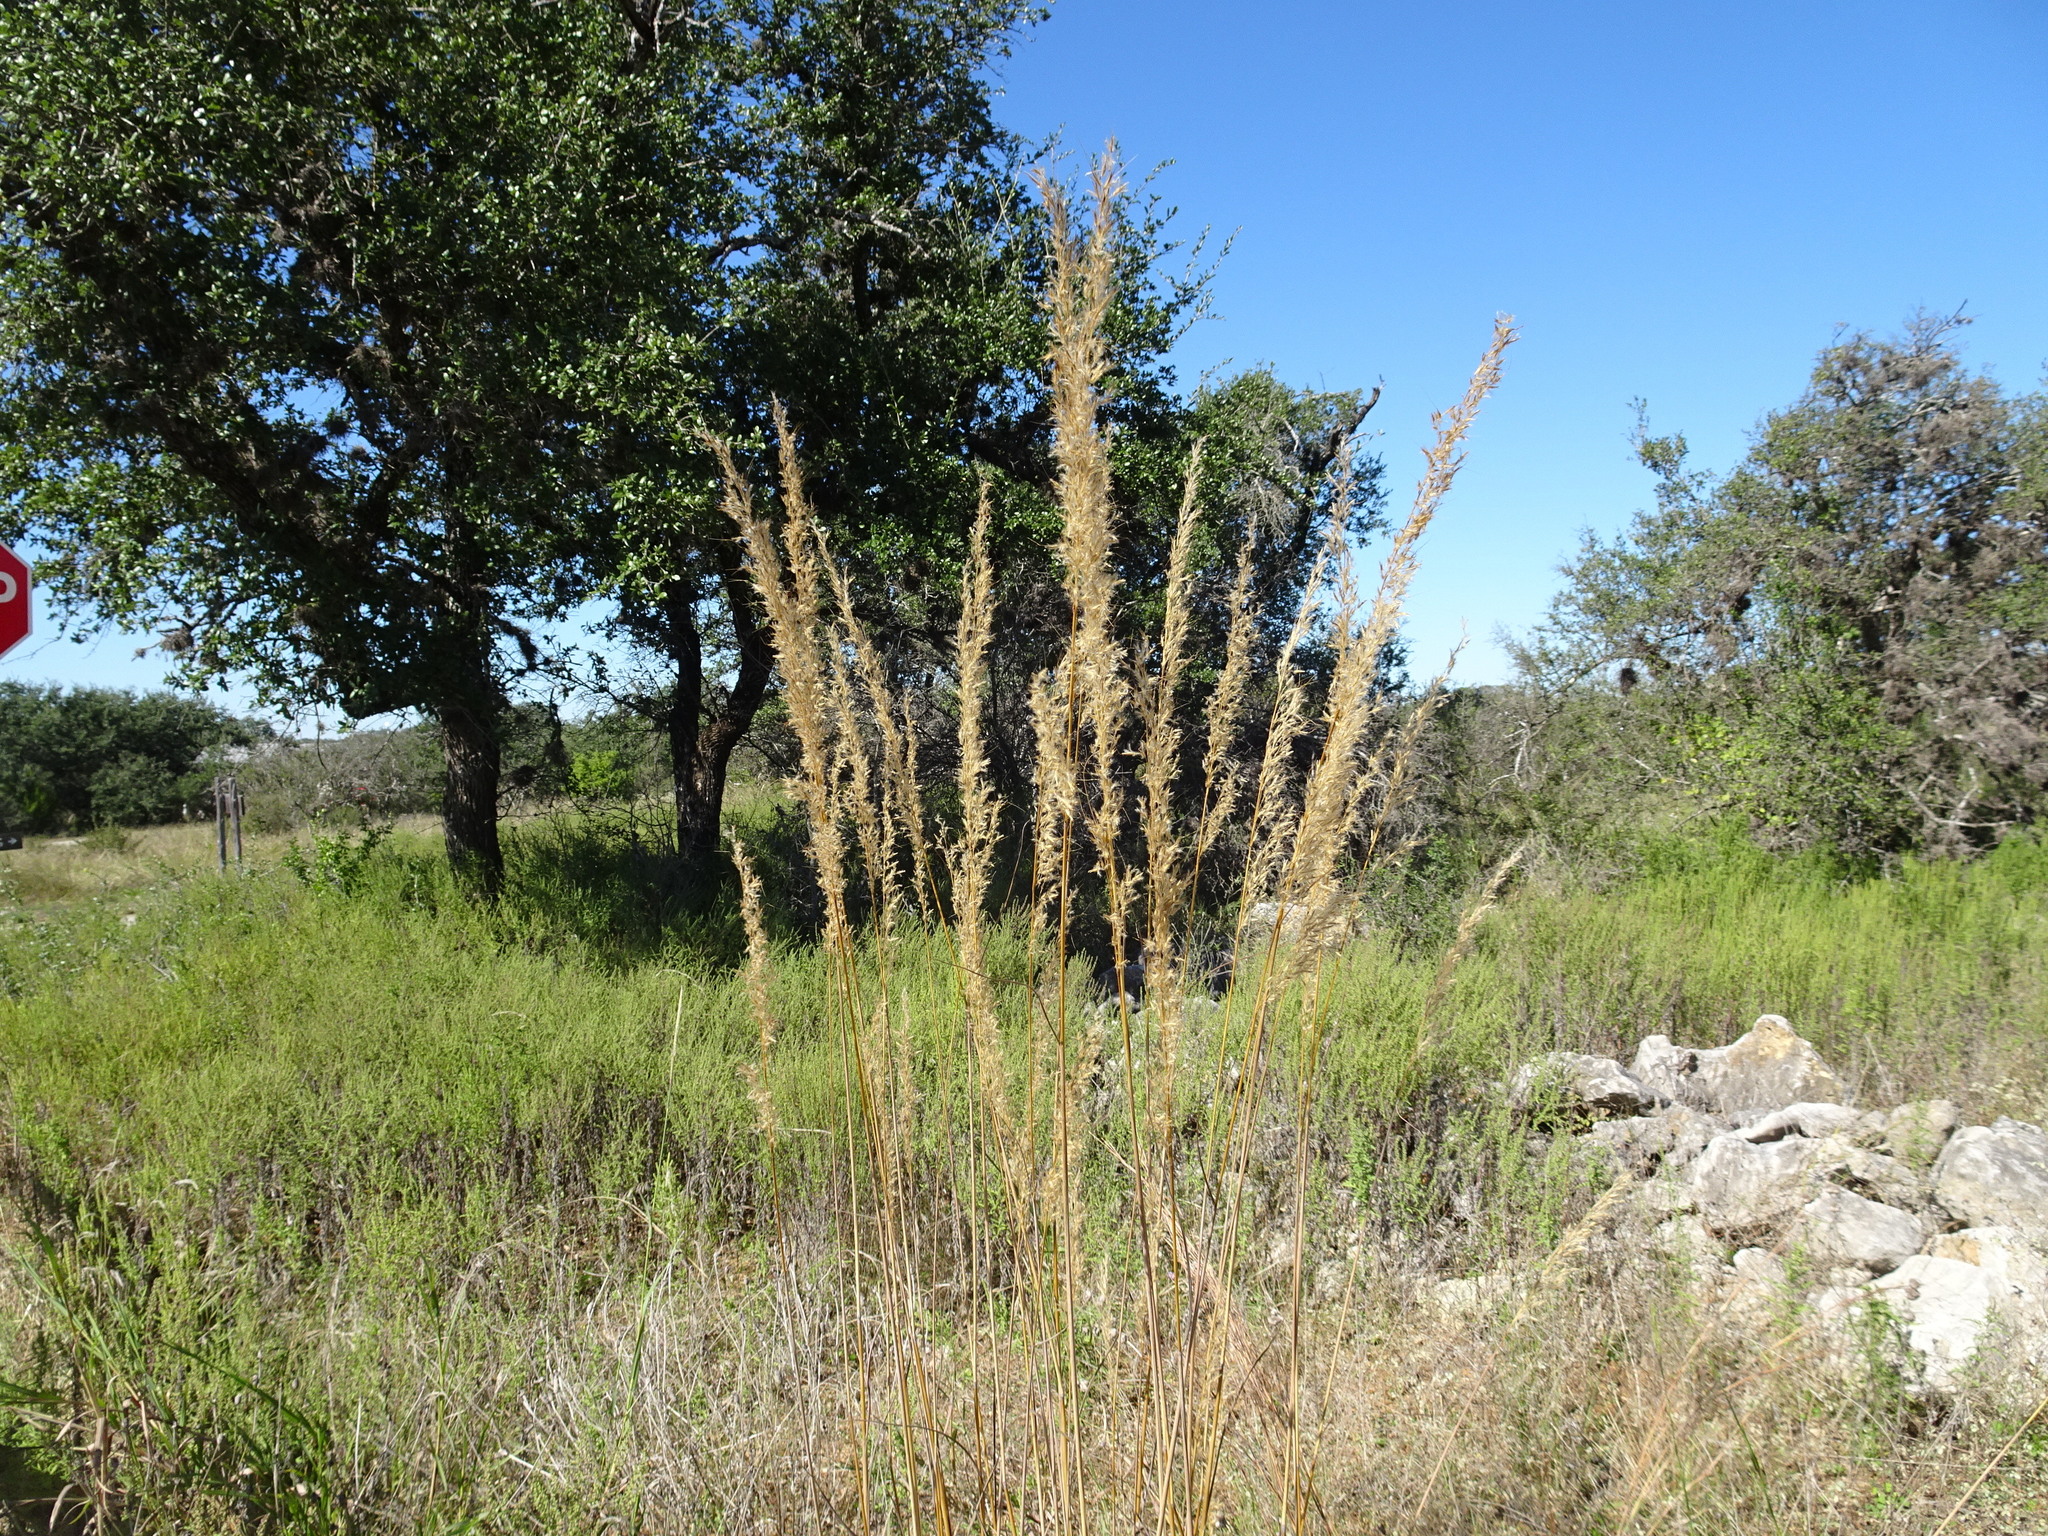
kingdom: Plantae
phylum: Tracheophyta
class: Liliopsida
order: Poales
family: Poaceae
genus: Sorghastrum
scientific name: Sorghastrum nutans
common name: Indian grass
